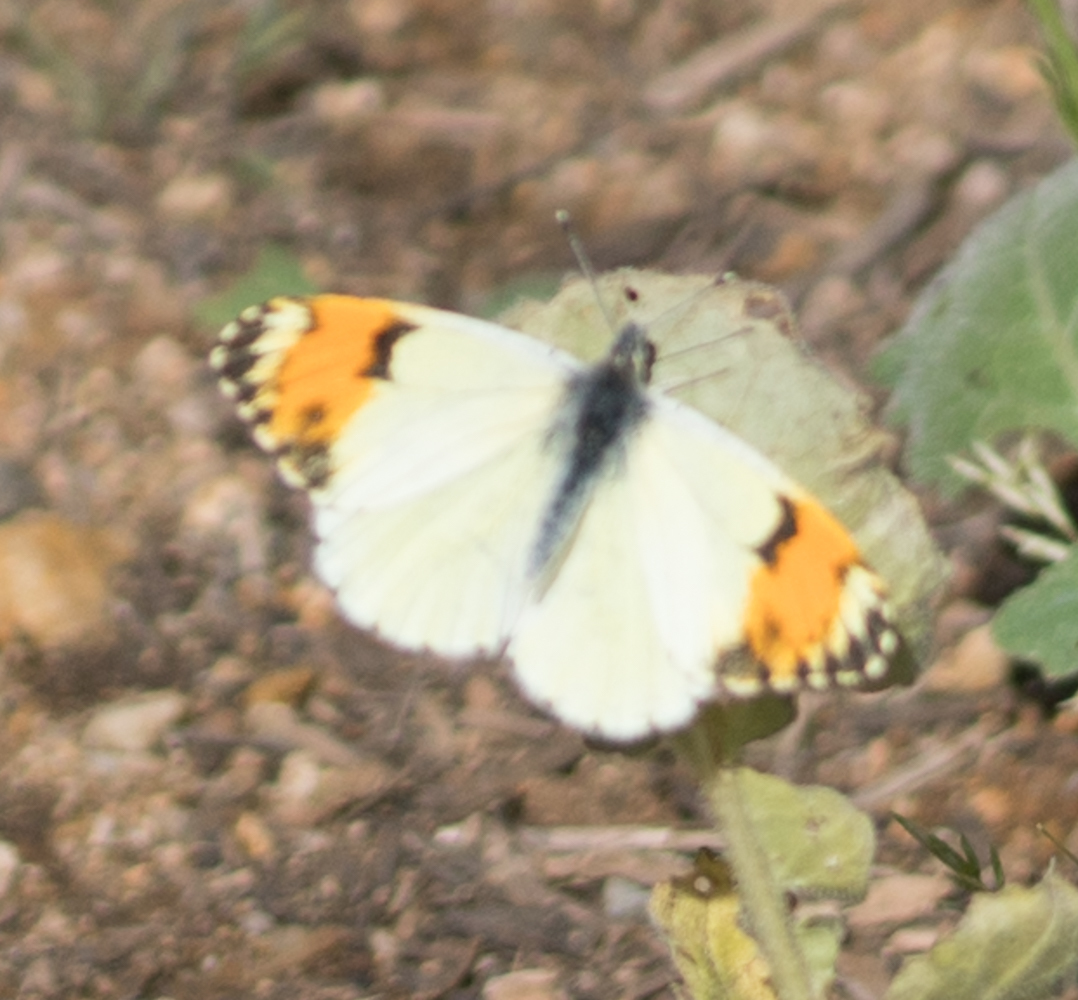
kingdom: Animalia
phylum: Arthropoda
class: Insecta
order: Lepidoptera
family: Pieridae
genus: Anthocharis
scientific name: Anthocharis sara
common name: Sara's orangetip
